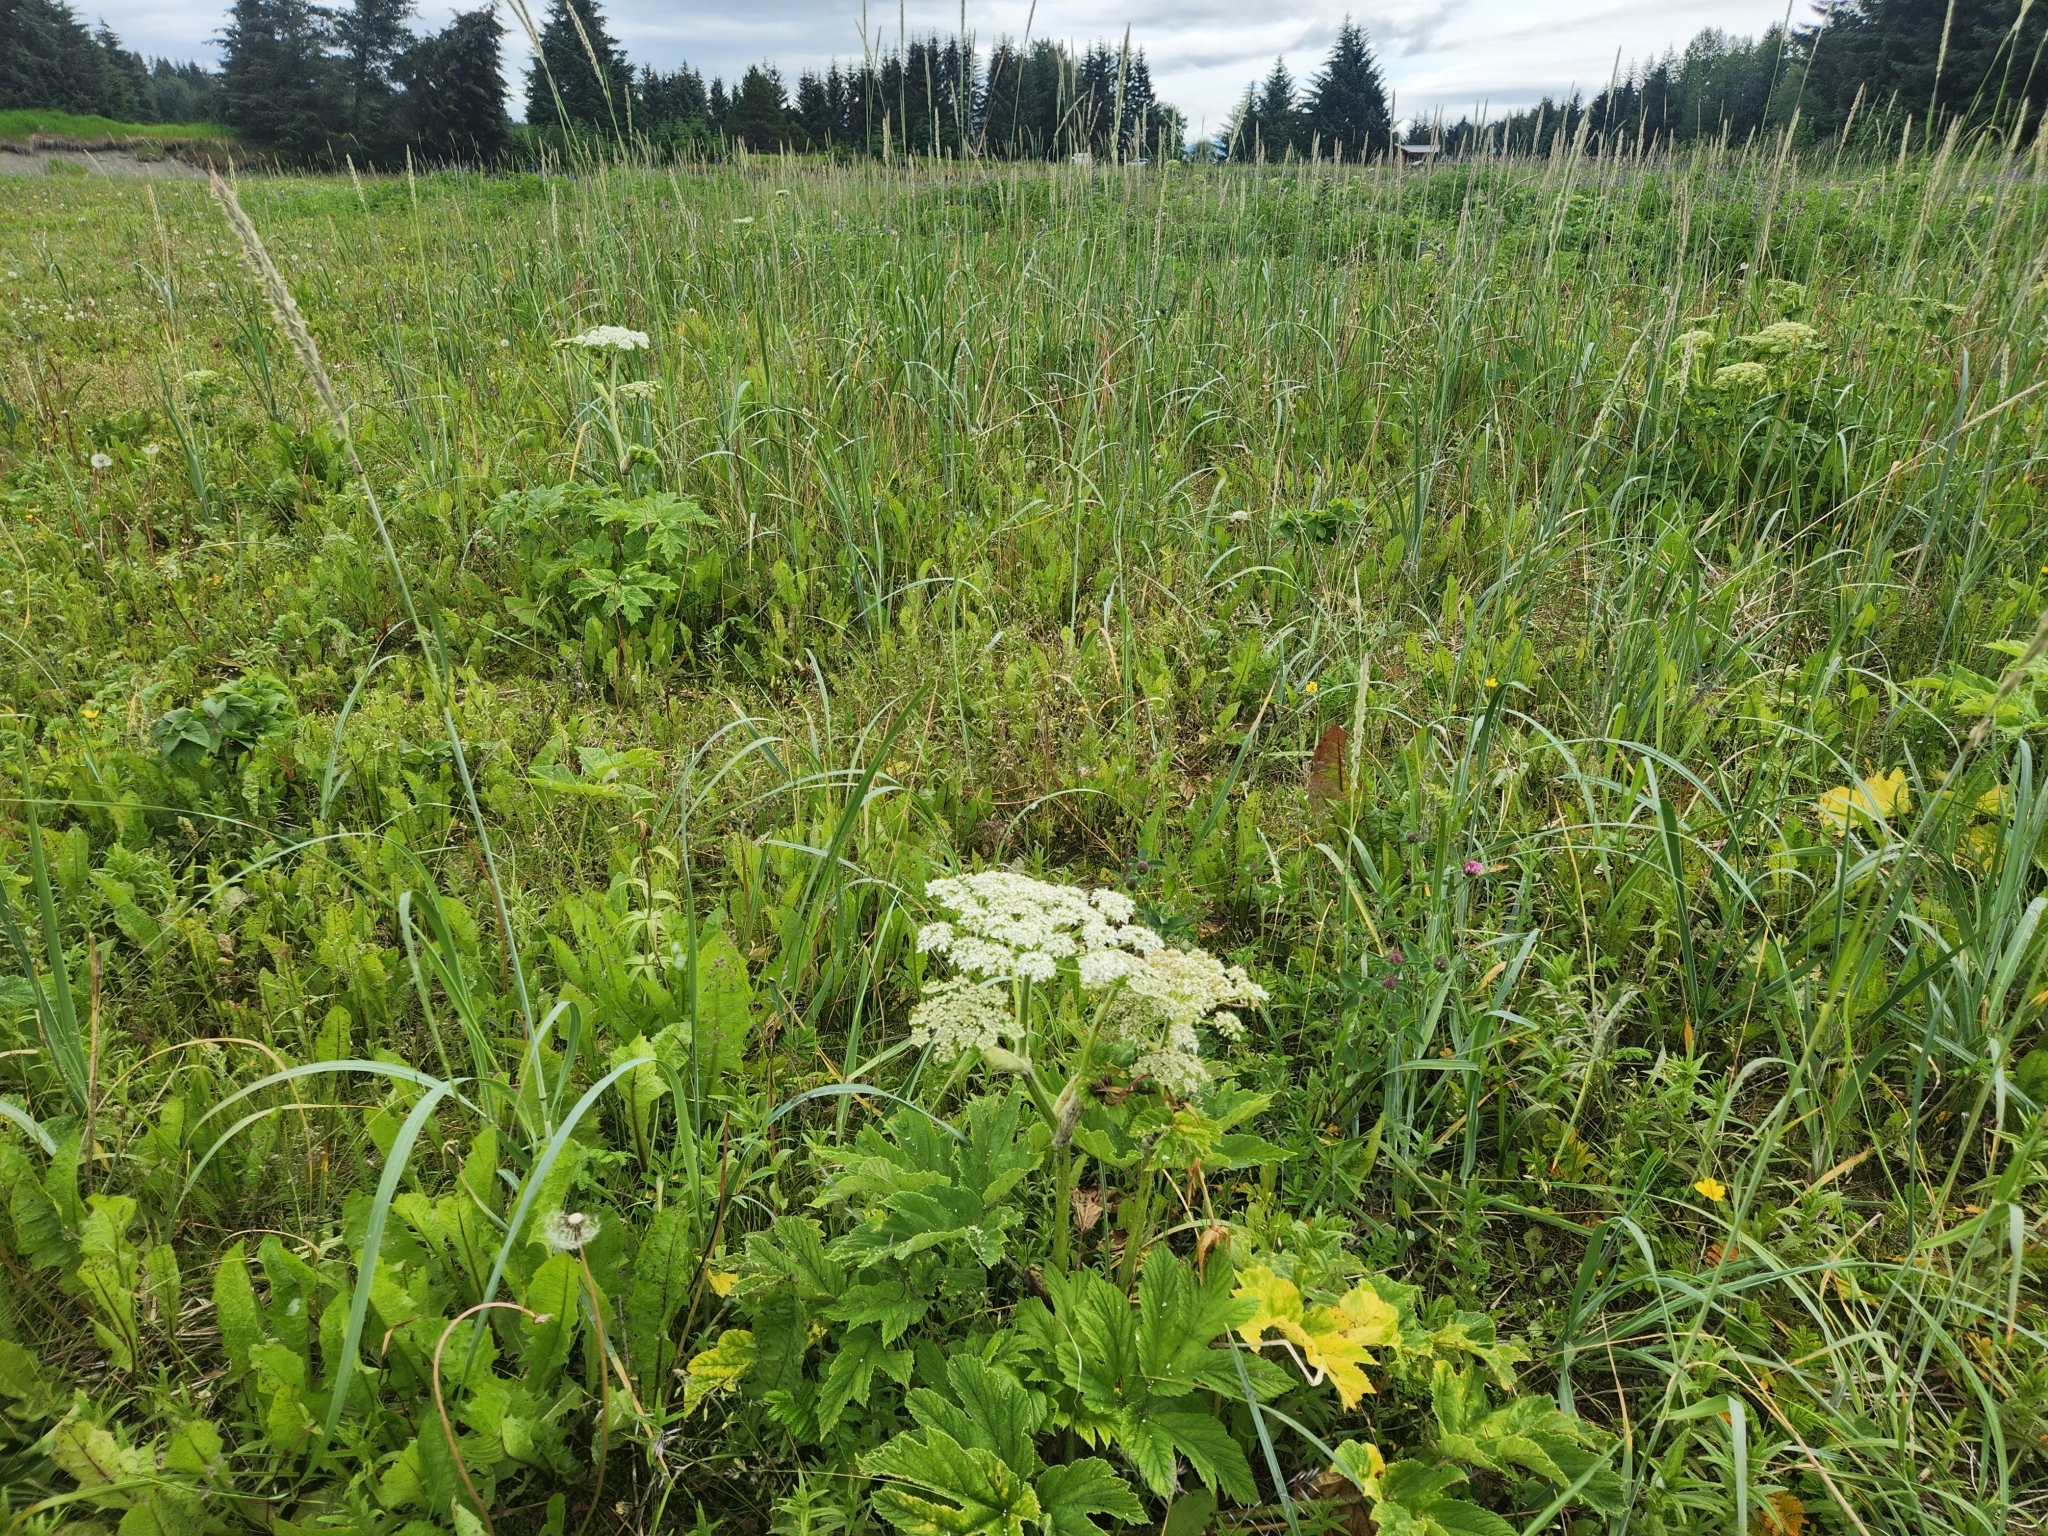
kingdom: Plantae
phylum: Tracheophyta
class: Magnoliopsida
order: Apiales
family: Apiaceae
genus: Heracleum
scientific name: Heracleum maximum
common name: American cow parsnip
